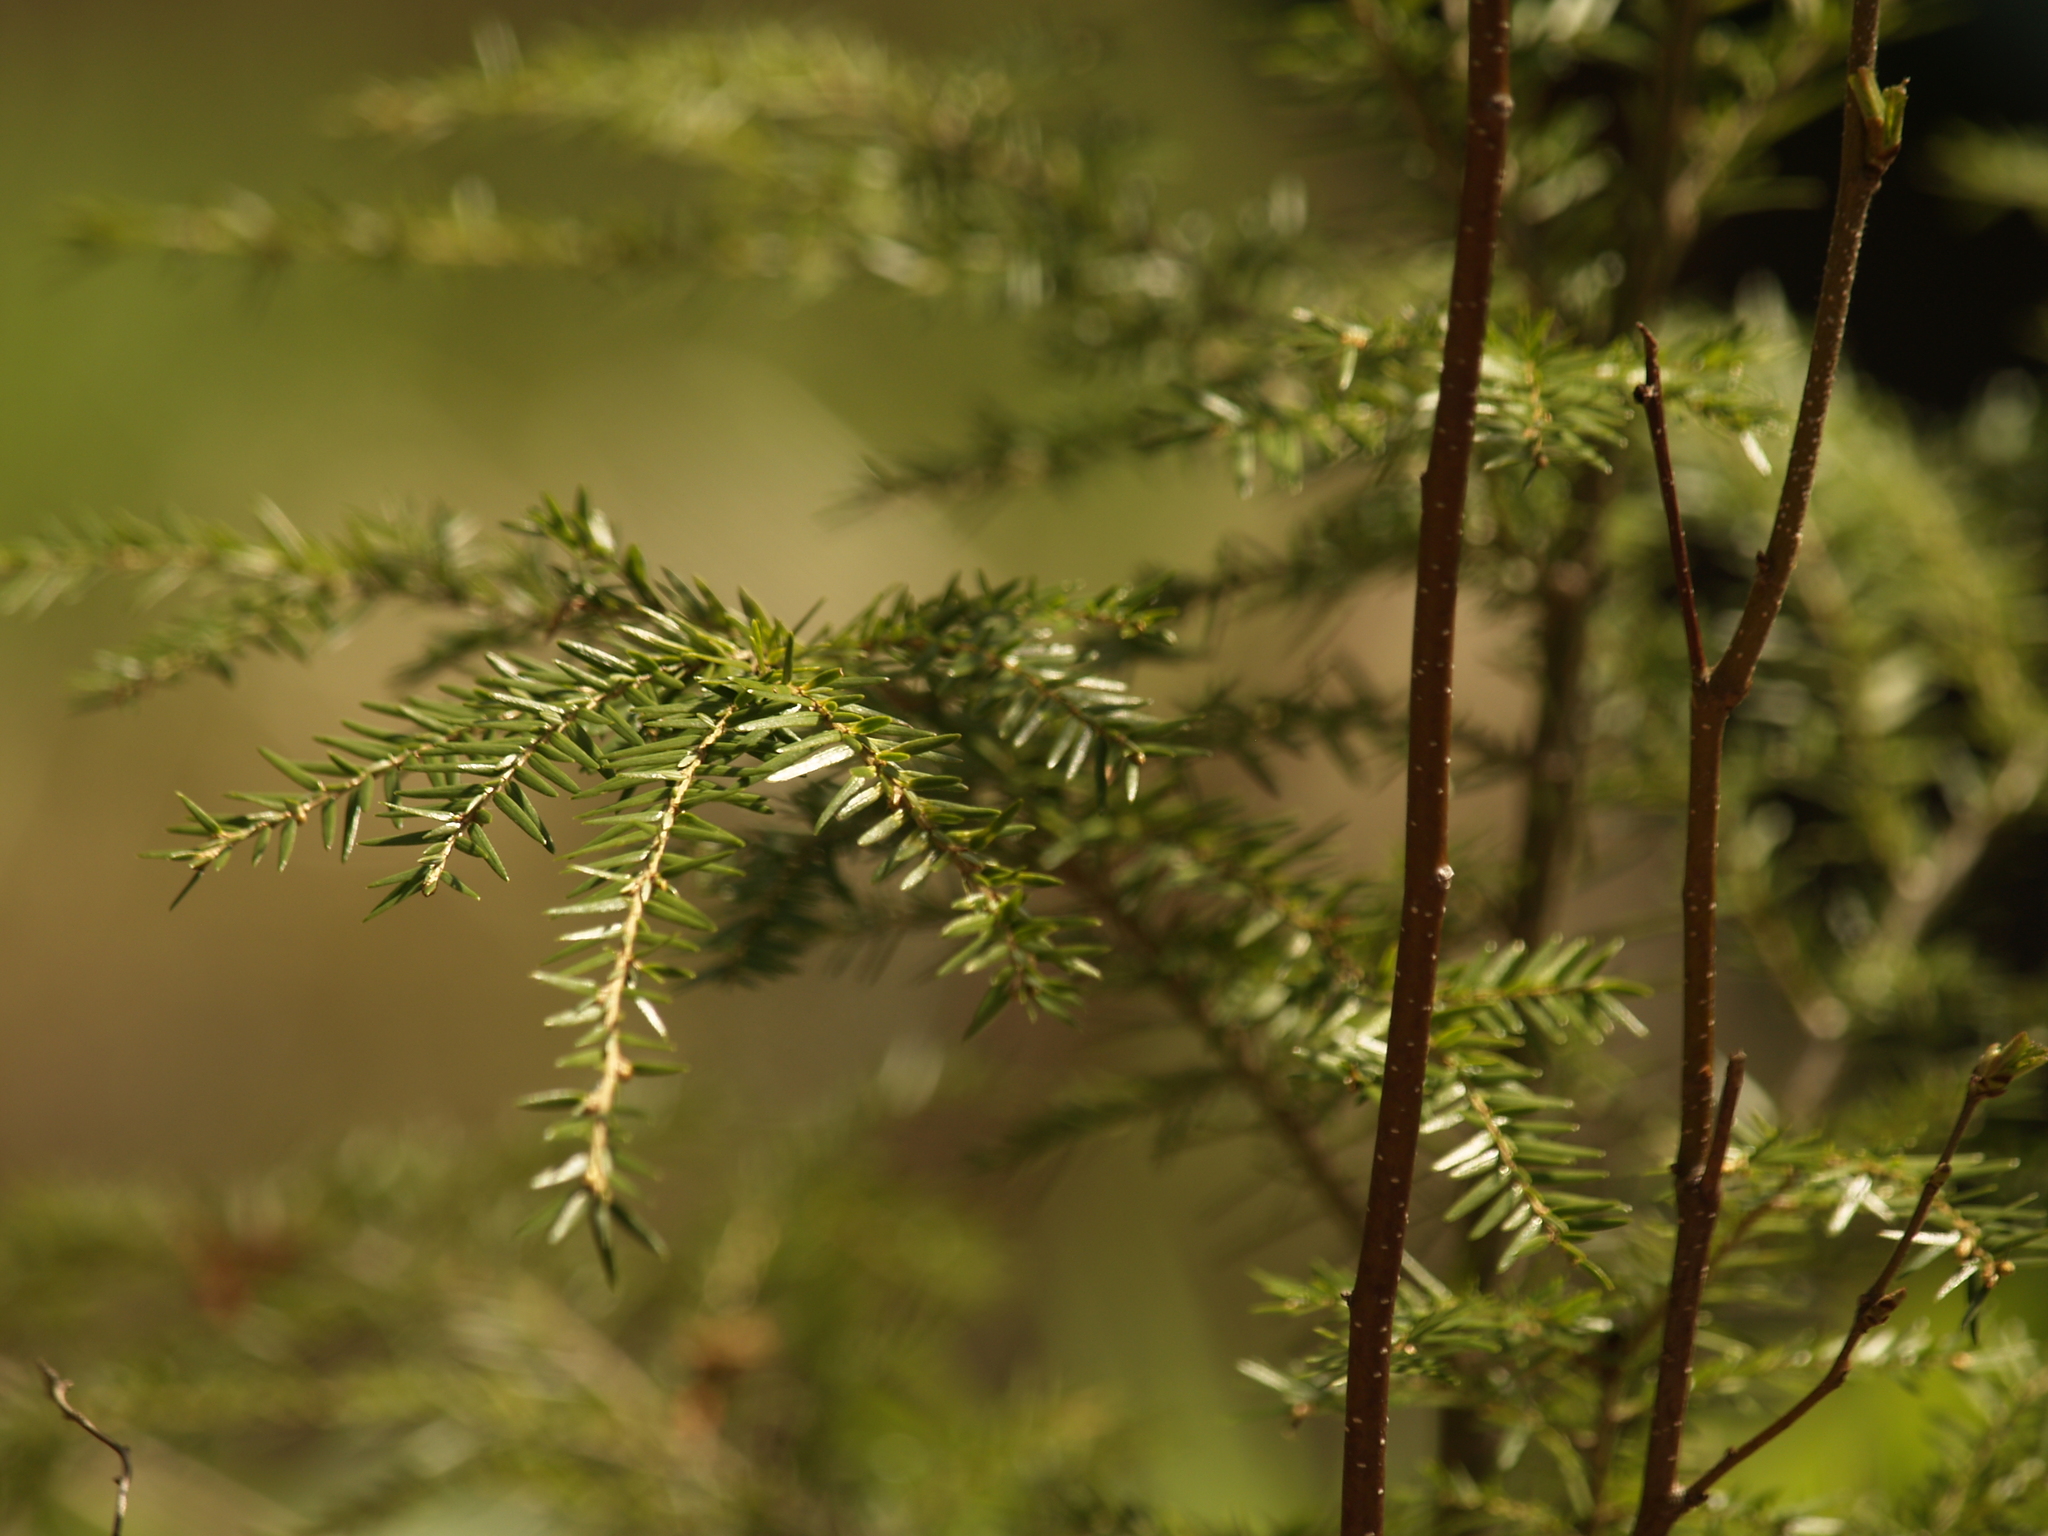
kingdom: Plantae
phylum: Tracheophyta
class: Pinopsida
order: Pinales
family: Pinaceae
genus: Tsuga
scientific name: Tsuga canadensis
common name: Eastern hemlock
